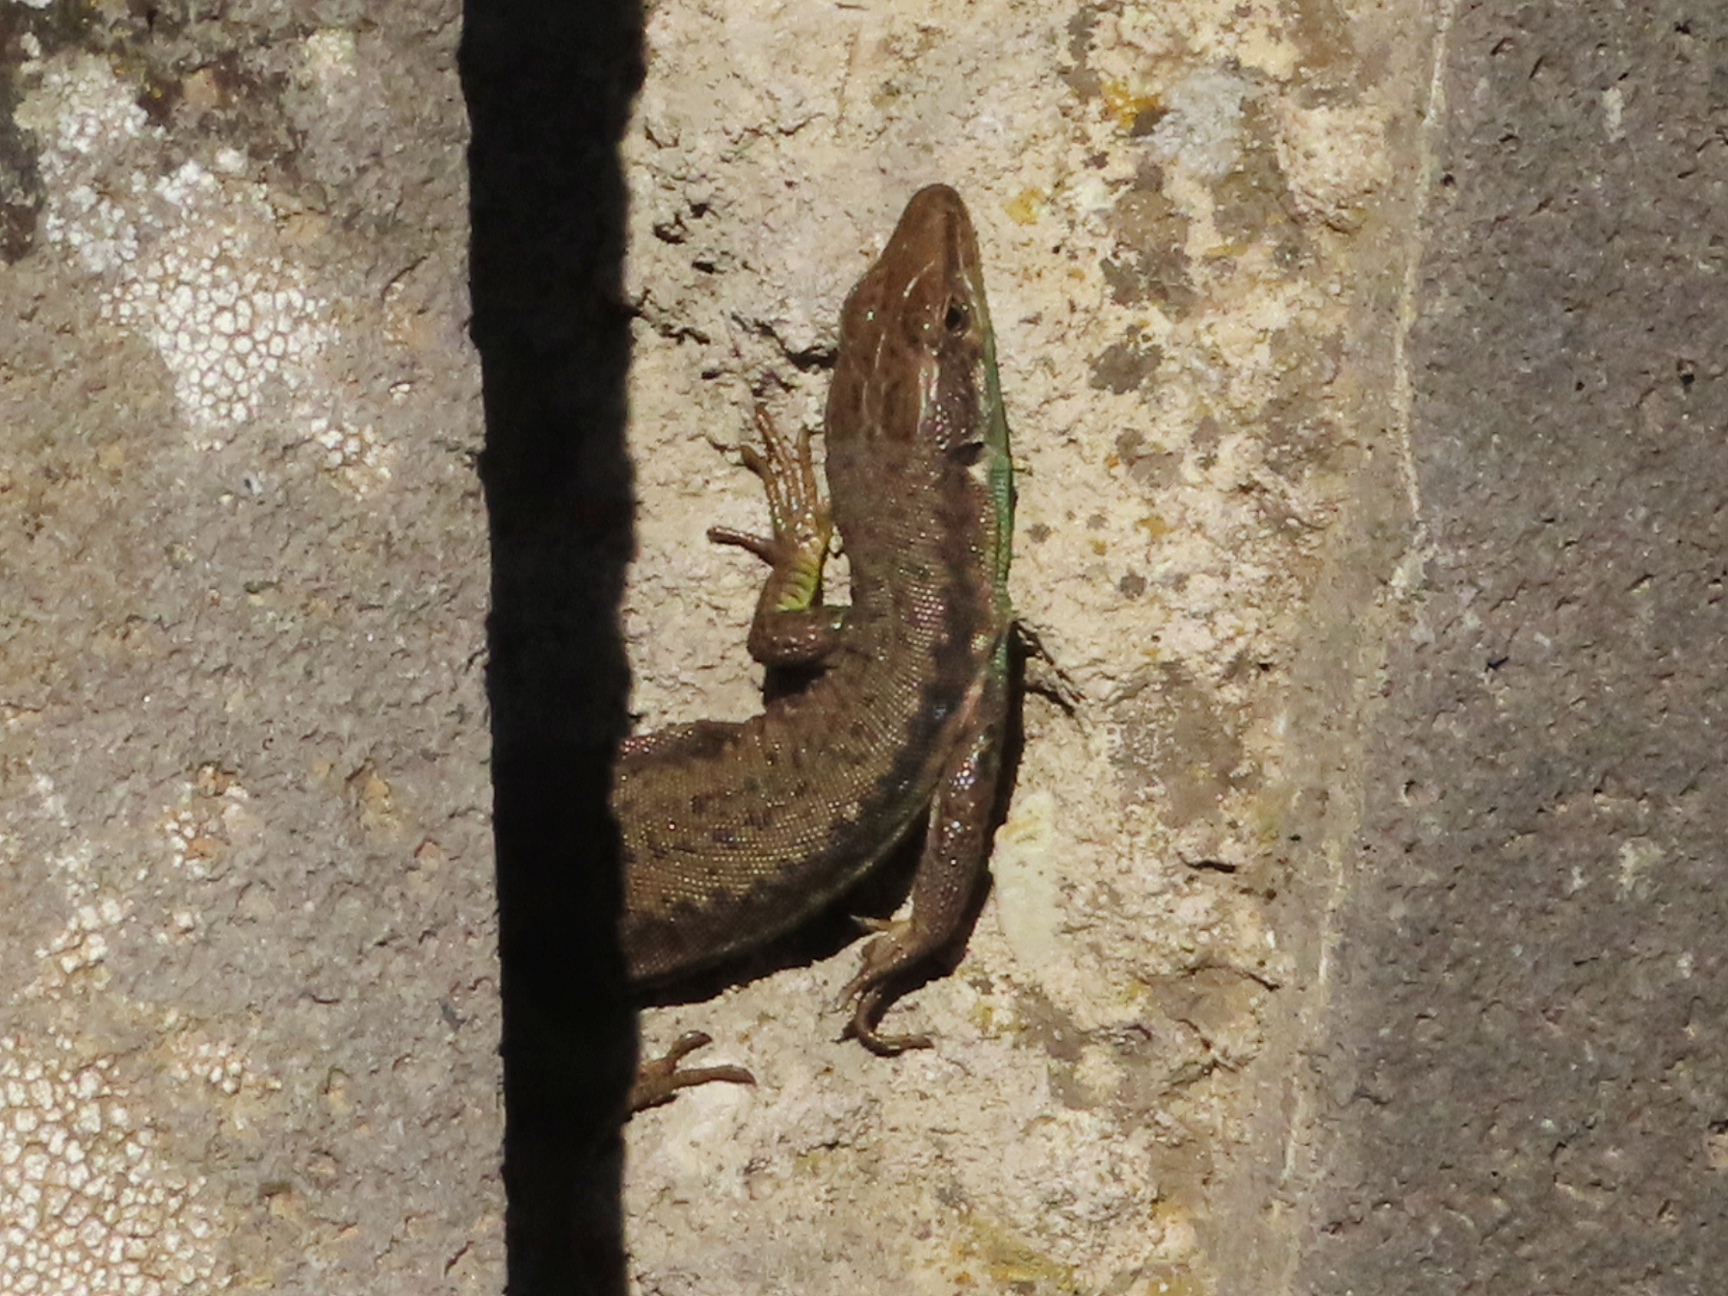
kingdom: Animalia
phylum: Chordata
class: Squamata
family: Lacertidae
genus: Darevskia
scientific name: Darevskia raddei
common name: Radde's lizard
